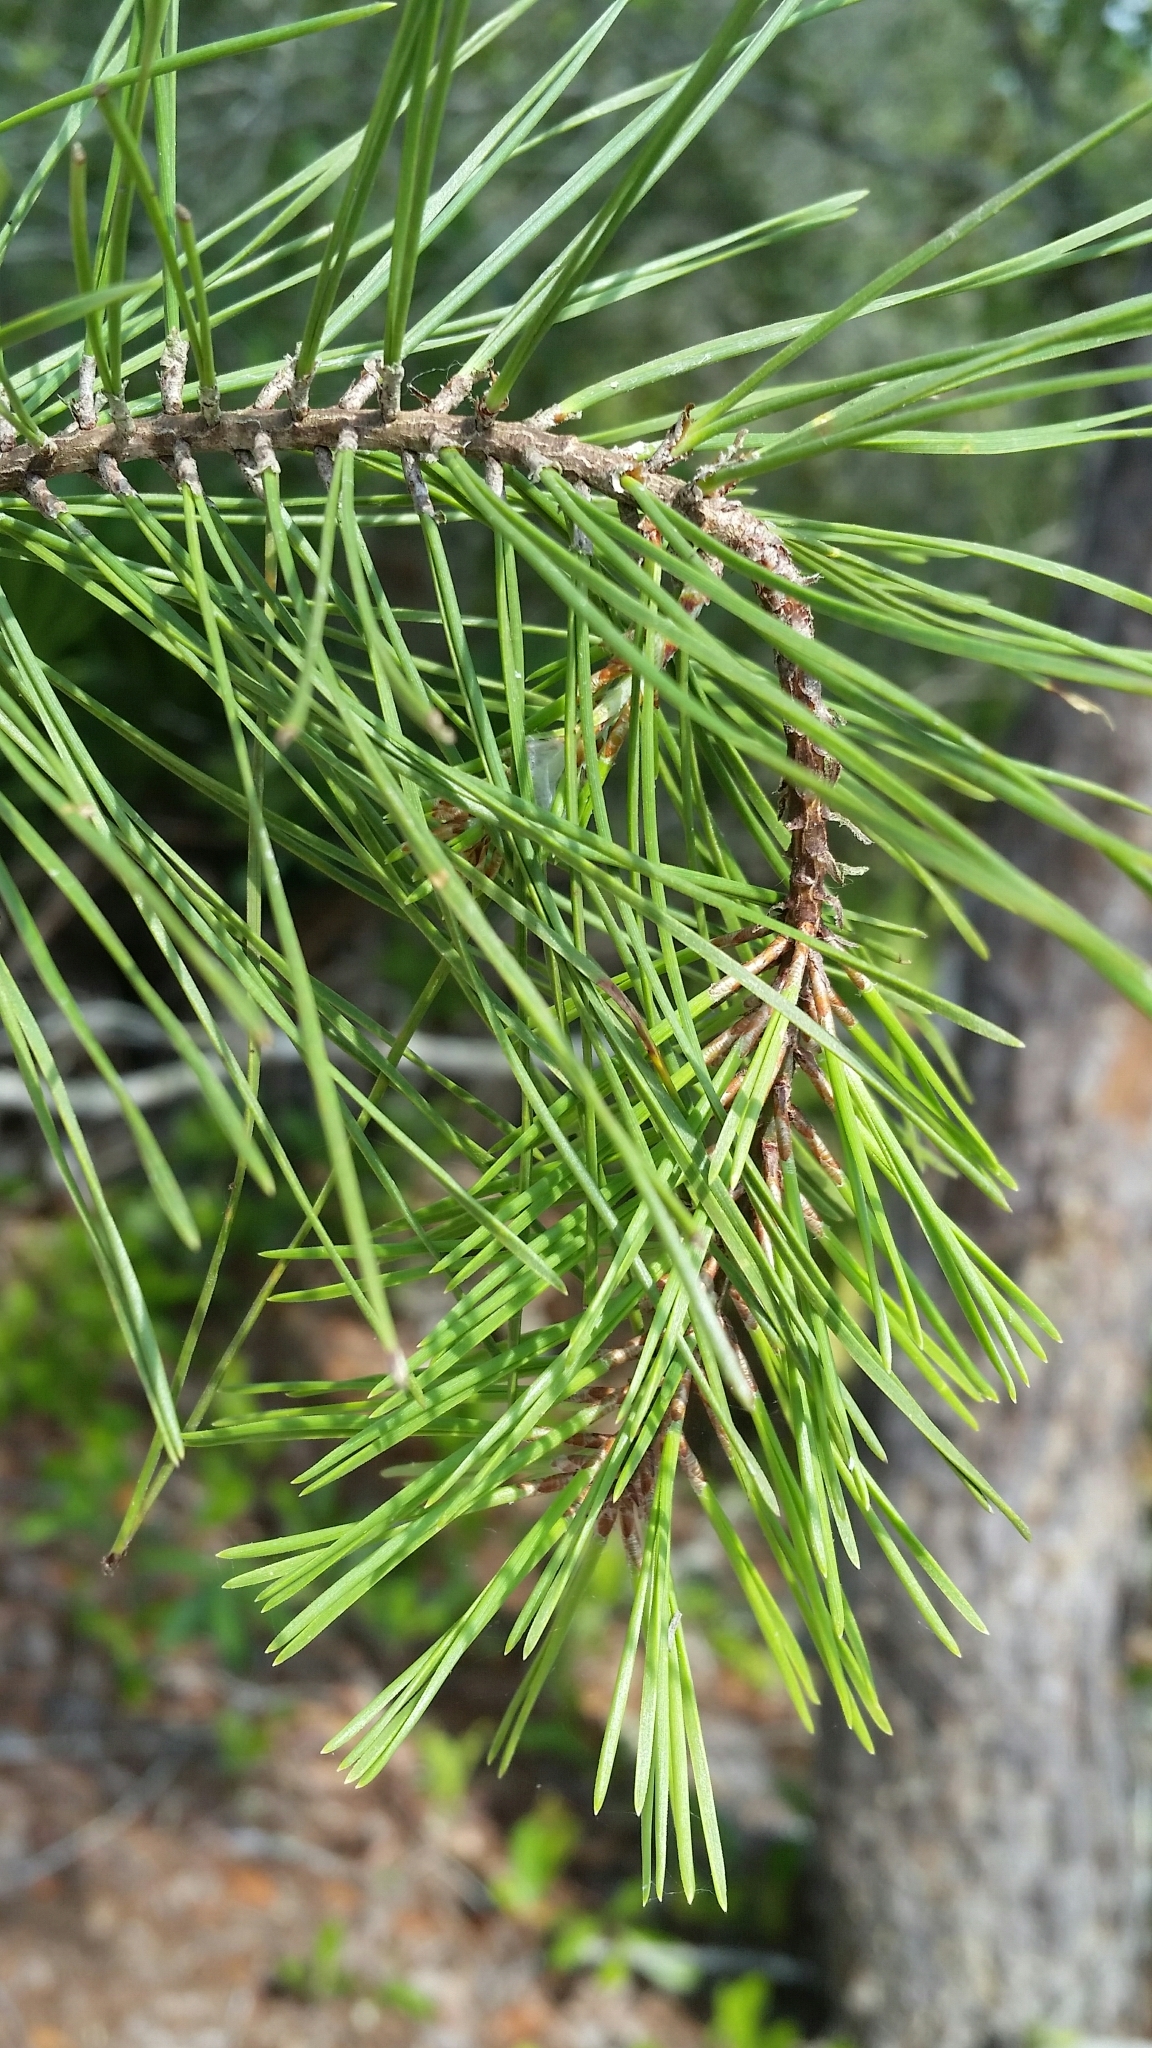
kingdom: Plantae
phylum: Tracheophyta
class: Pinopsida
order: Pinales
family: Pinaceae
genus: Pinus
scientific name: Pinus clausa
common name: Sand pine
